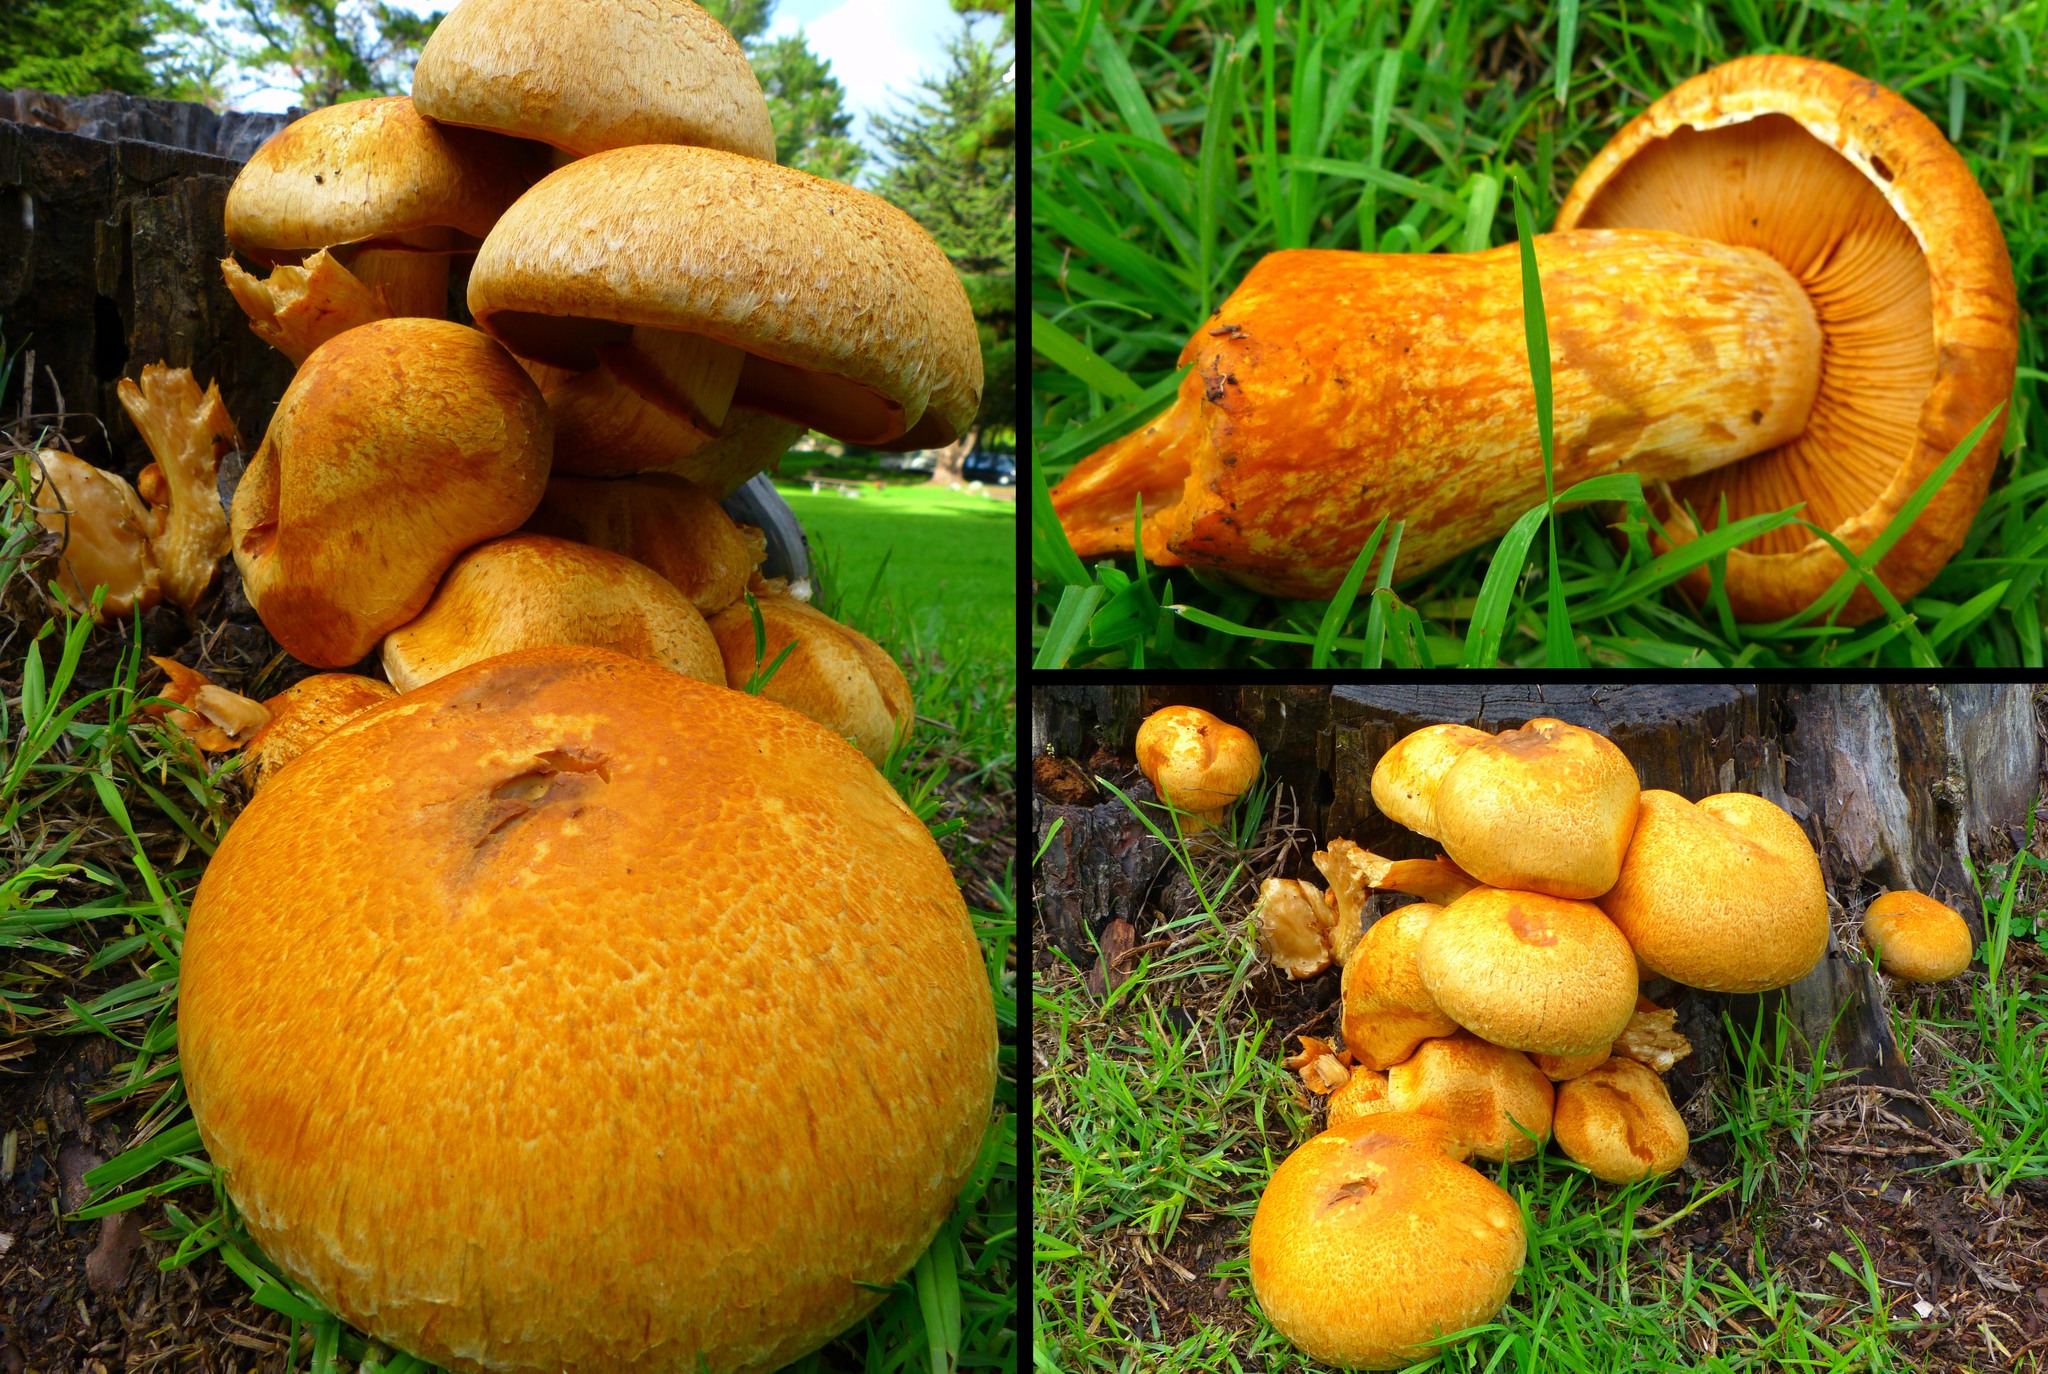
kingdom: Fungi
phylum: Basidiomycota
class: Agaricomycetes
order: Agaricales
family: Hymenogastraceae
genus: Gymnopilus
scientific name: Gymnopilus ventricosus
